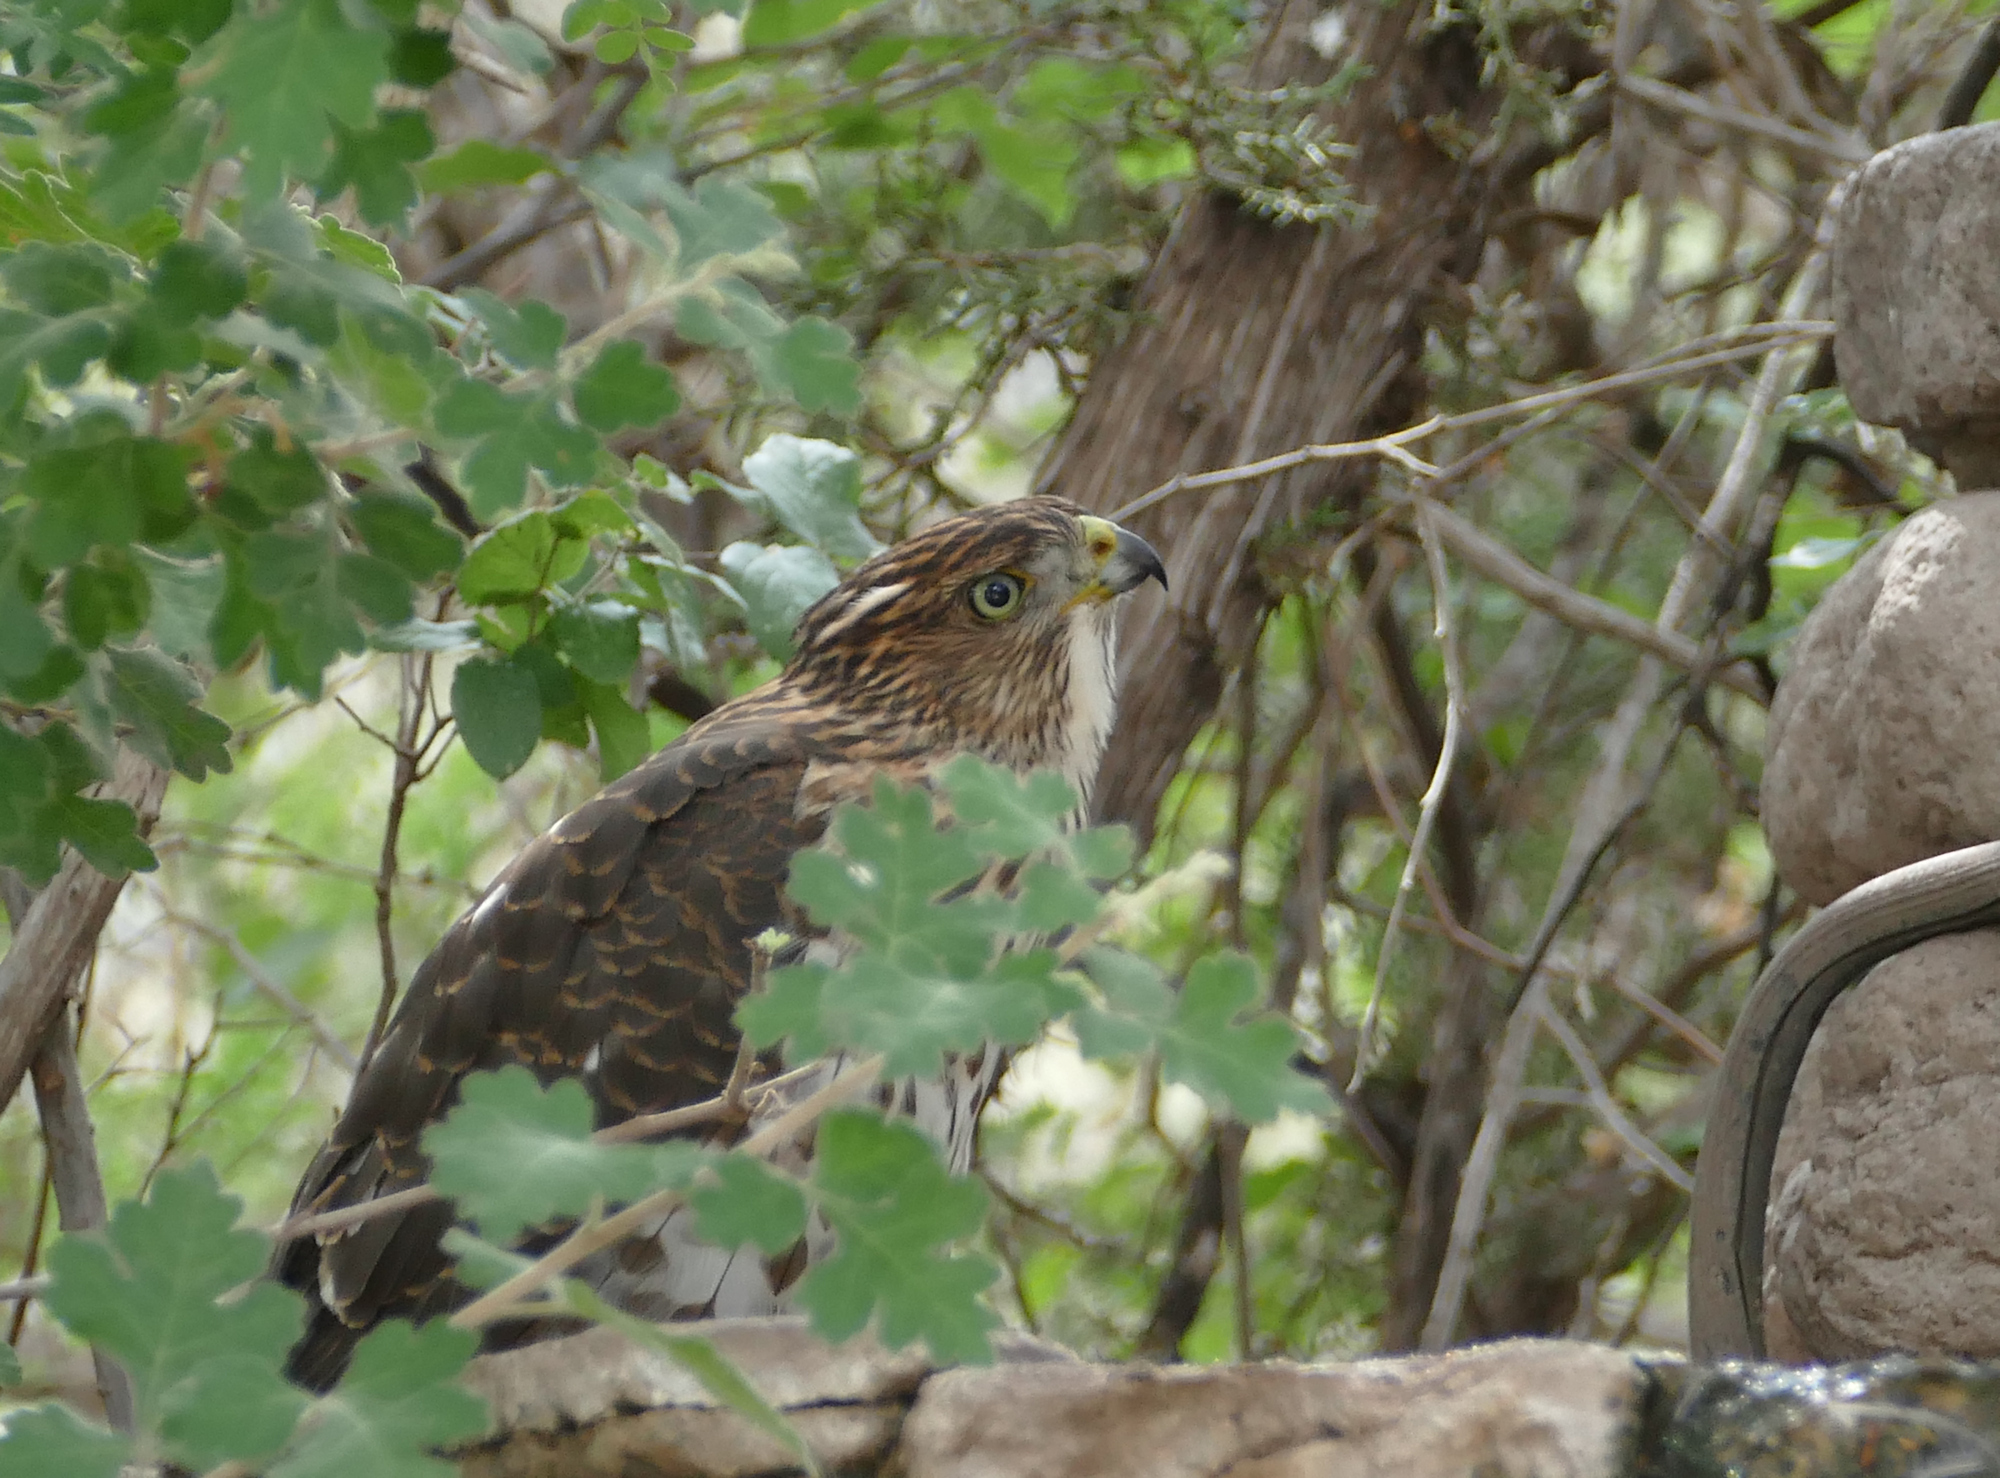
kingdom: Animalia
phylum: Chordata
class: Aves
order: Accipitriformes
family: Accipitridae
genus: Accipiter
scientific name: Accipiter cooperii
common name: Cooper's hawk
